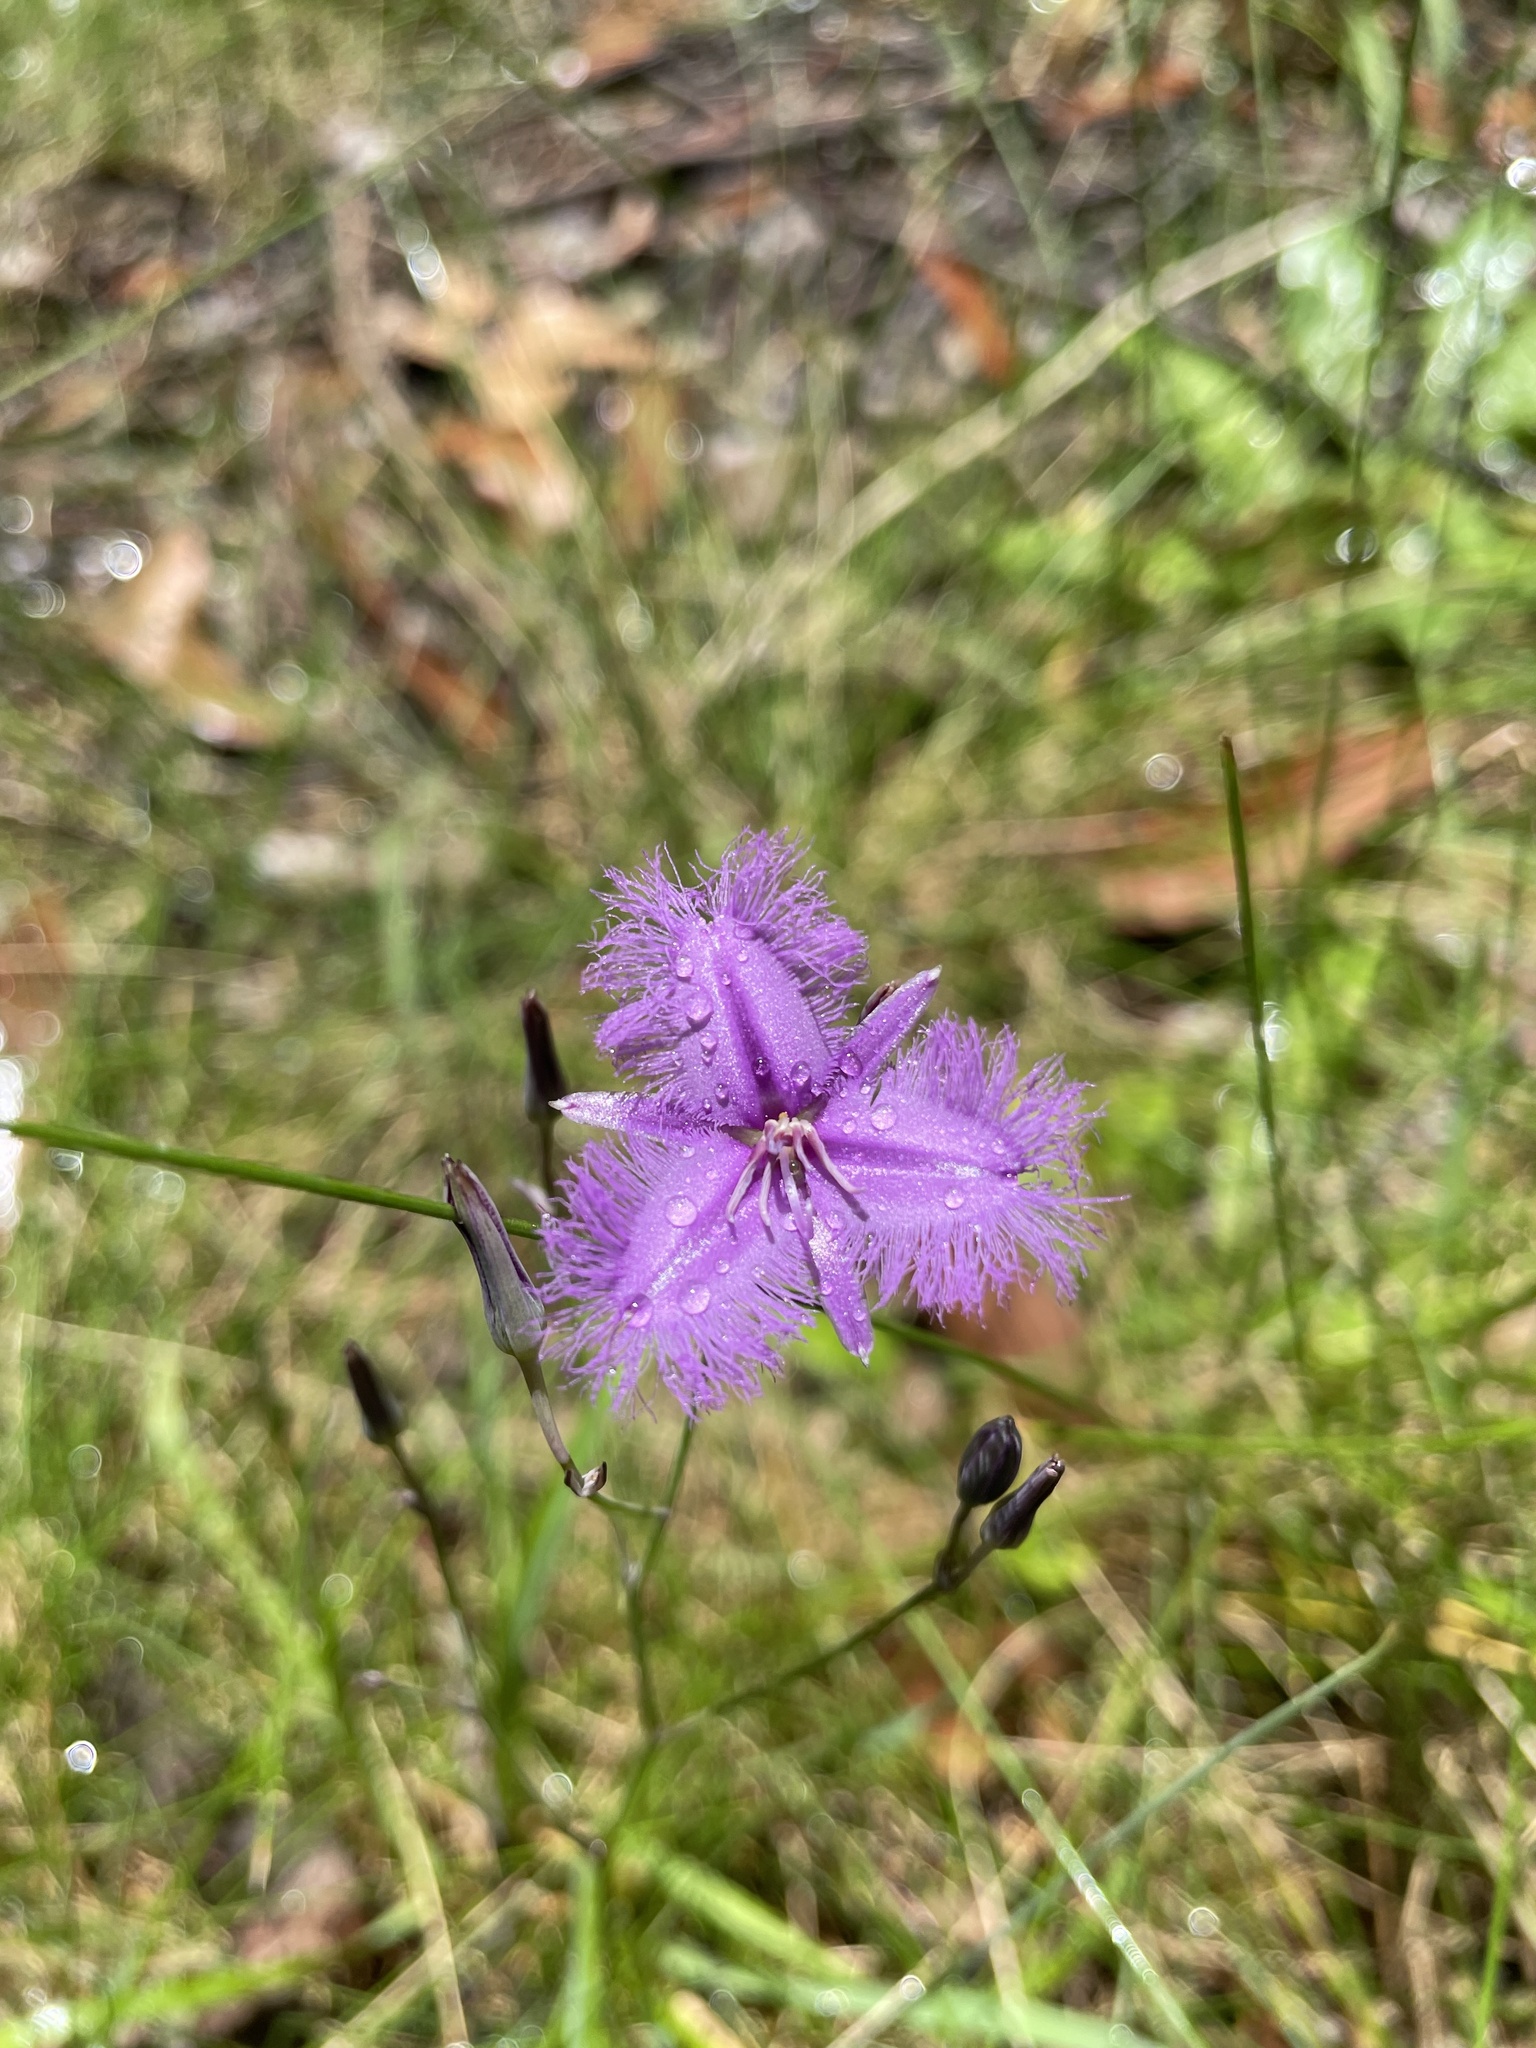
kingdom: Plantae
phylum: Tracheophyta
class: Liliopsida
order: Asparagales
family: Asparagaceae
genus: Thysanotus
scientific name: Thysanotus tuberosus
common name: Common fringed-lily
